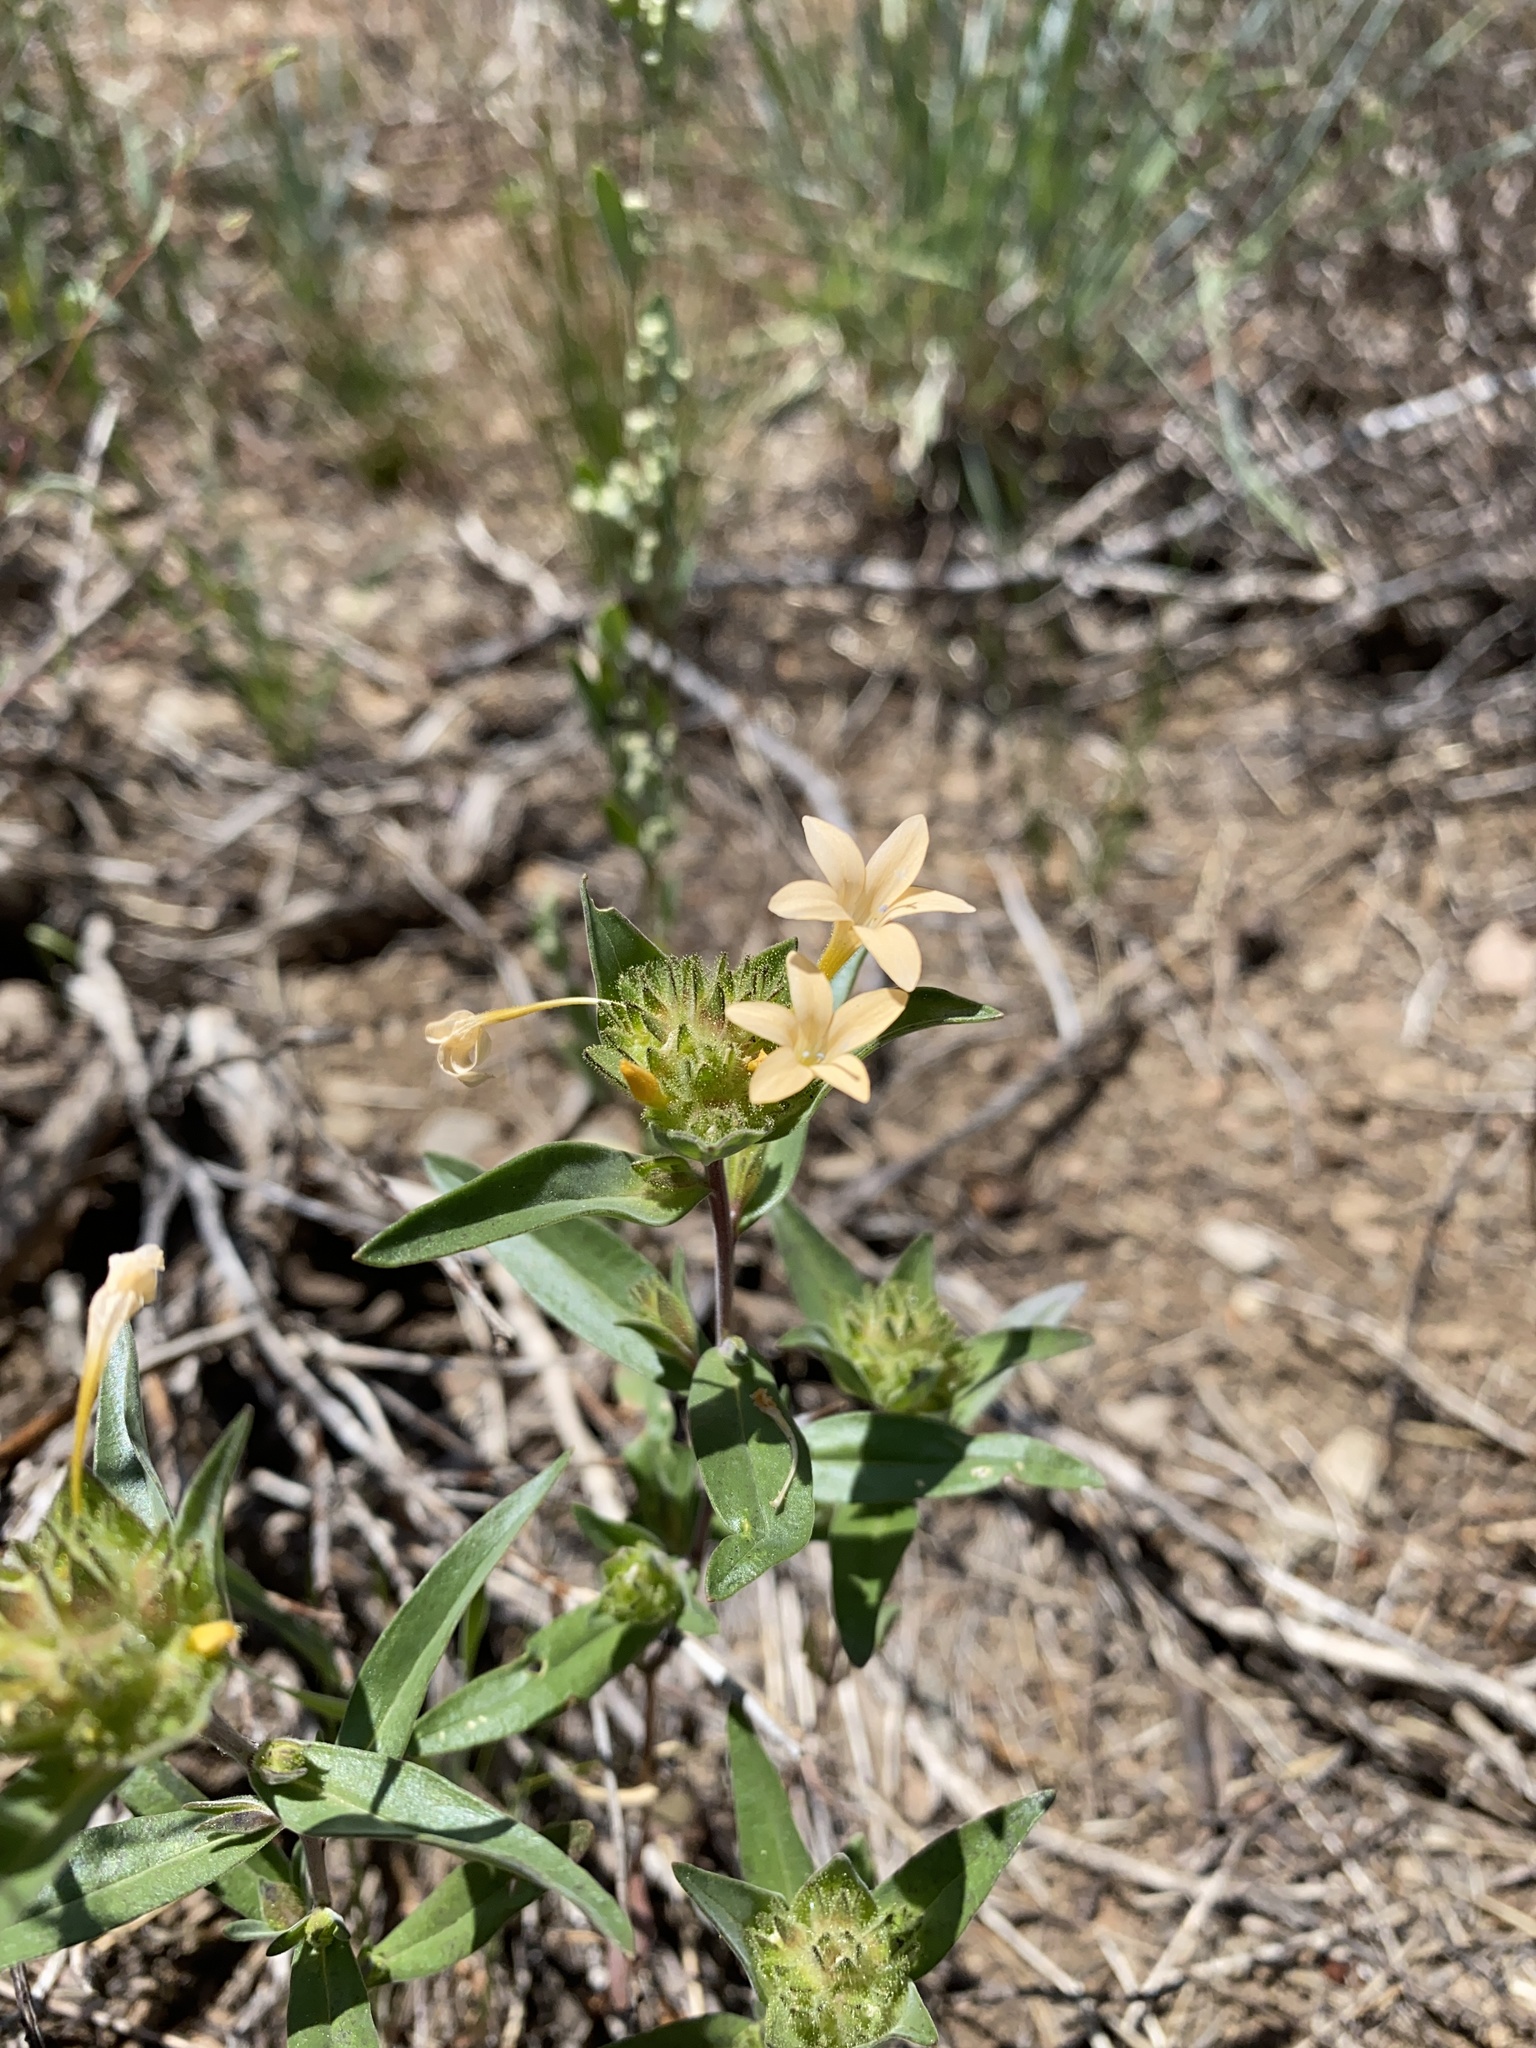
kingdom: Plantae
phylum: Tracheophyta
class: Magnoliopsida
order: Ericales
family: Polemoniaceae
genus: Collomia
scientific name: Collomia grandiflora
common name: California strawflower
